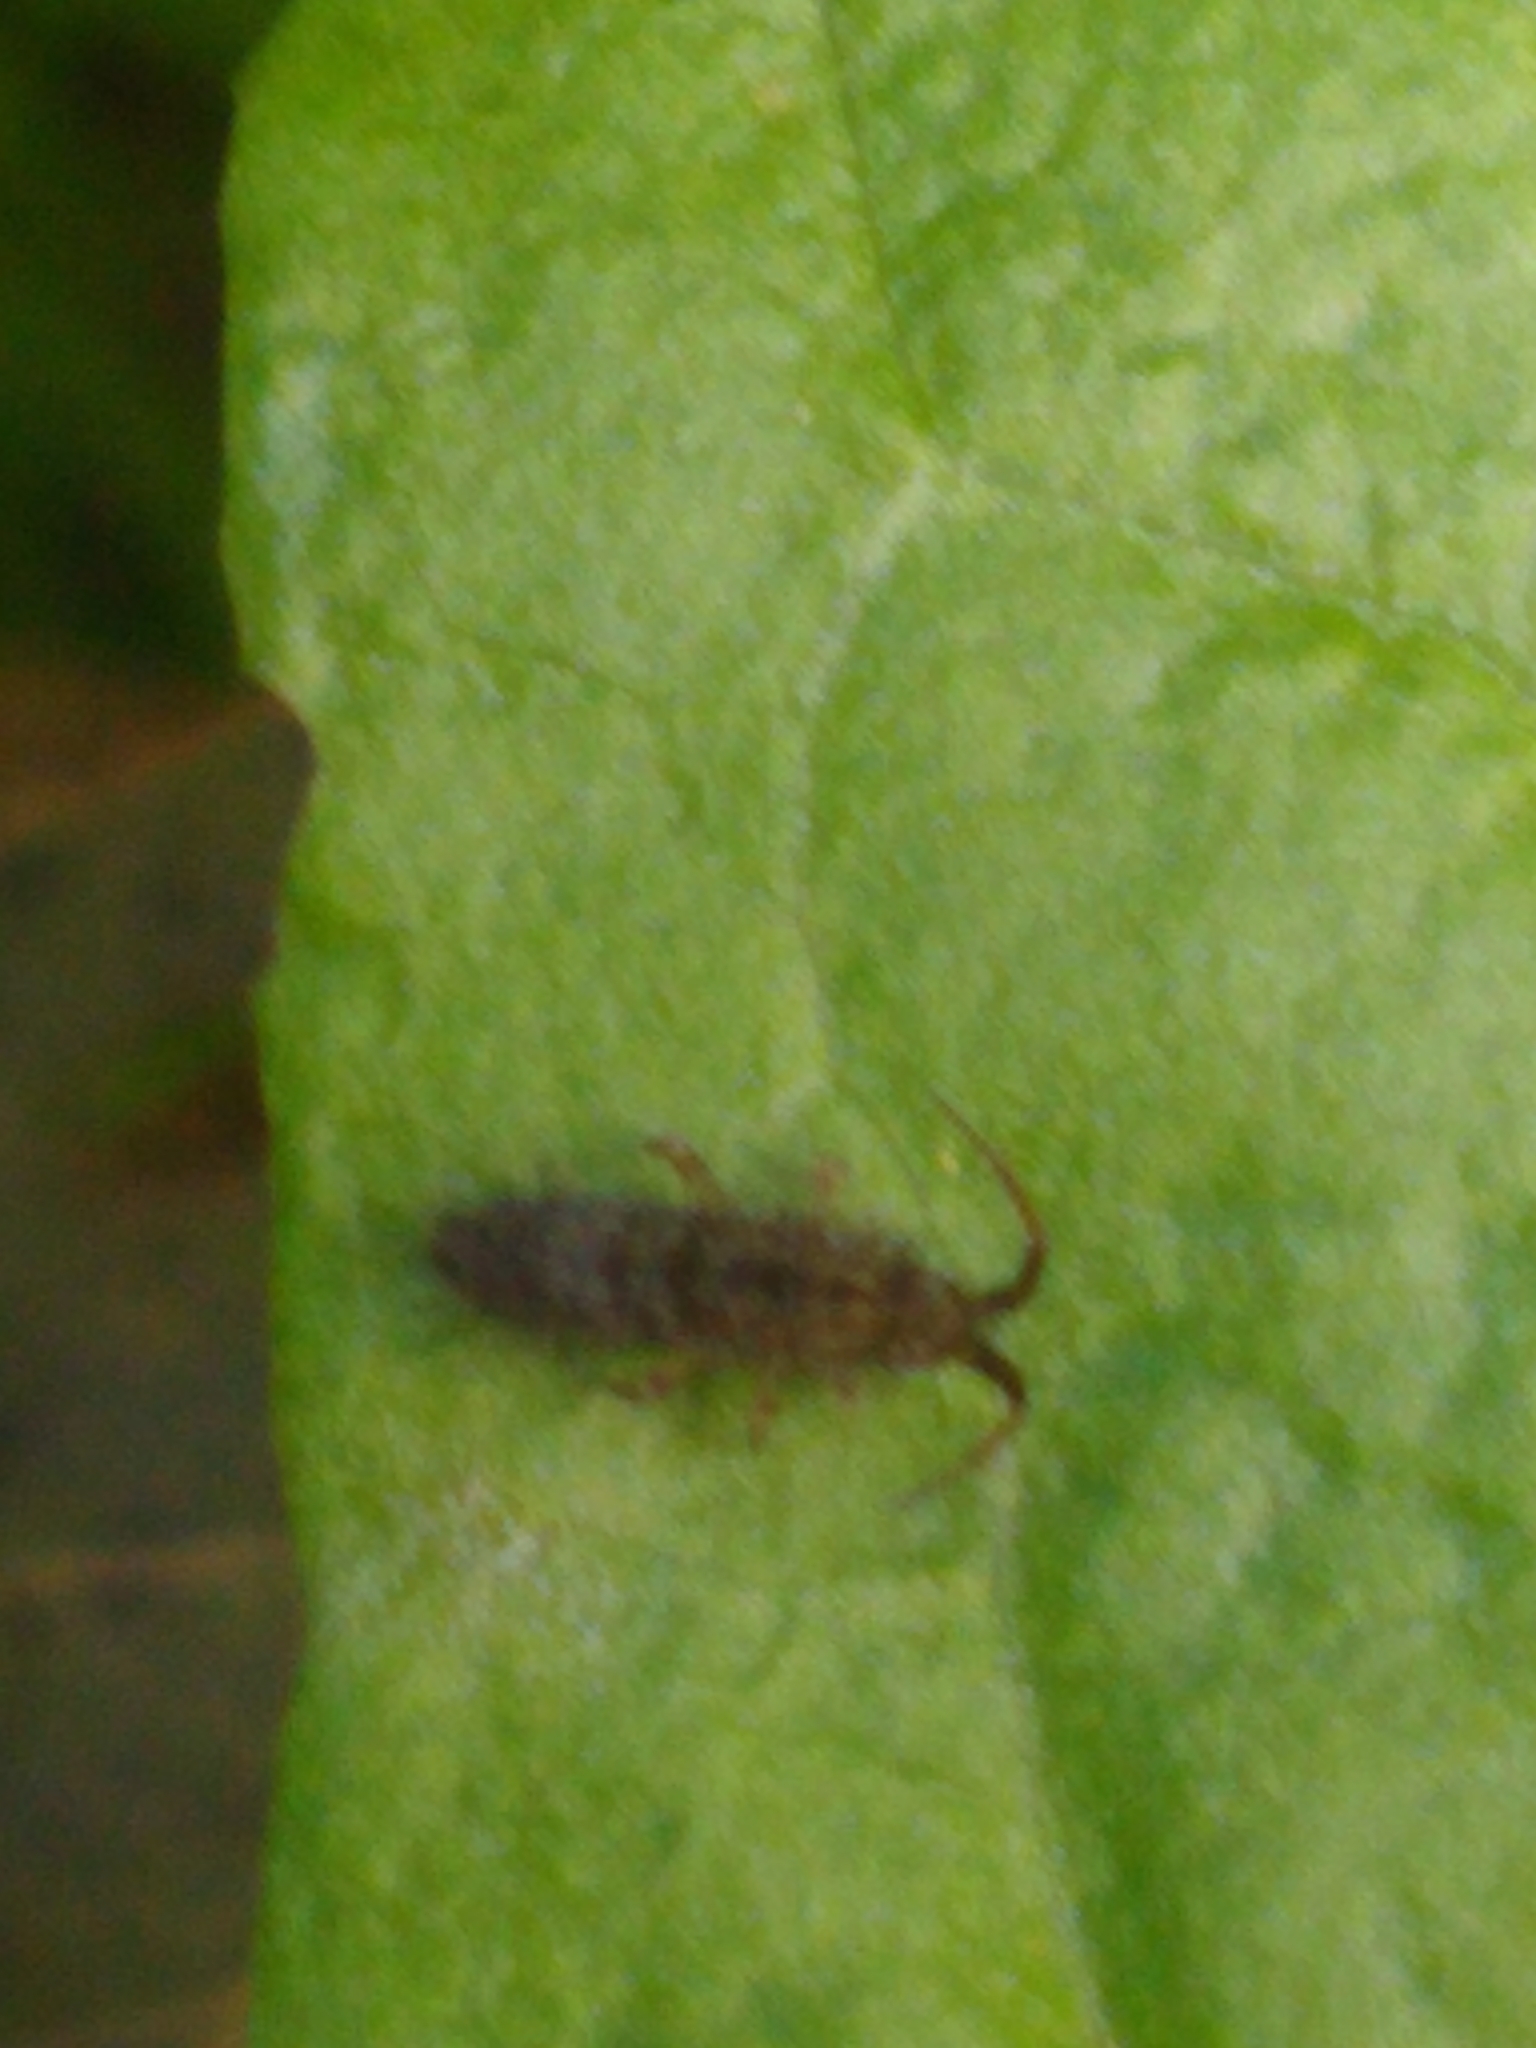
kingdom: Animalia
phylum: Arthropoda
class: Collembola
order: Entomobryomorpha
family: Orchesellidae
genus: Orchesella
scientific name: Orchesella villosa
